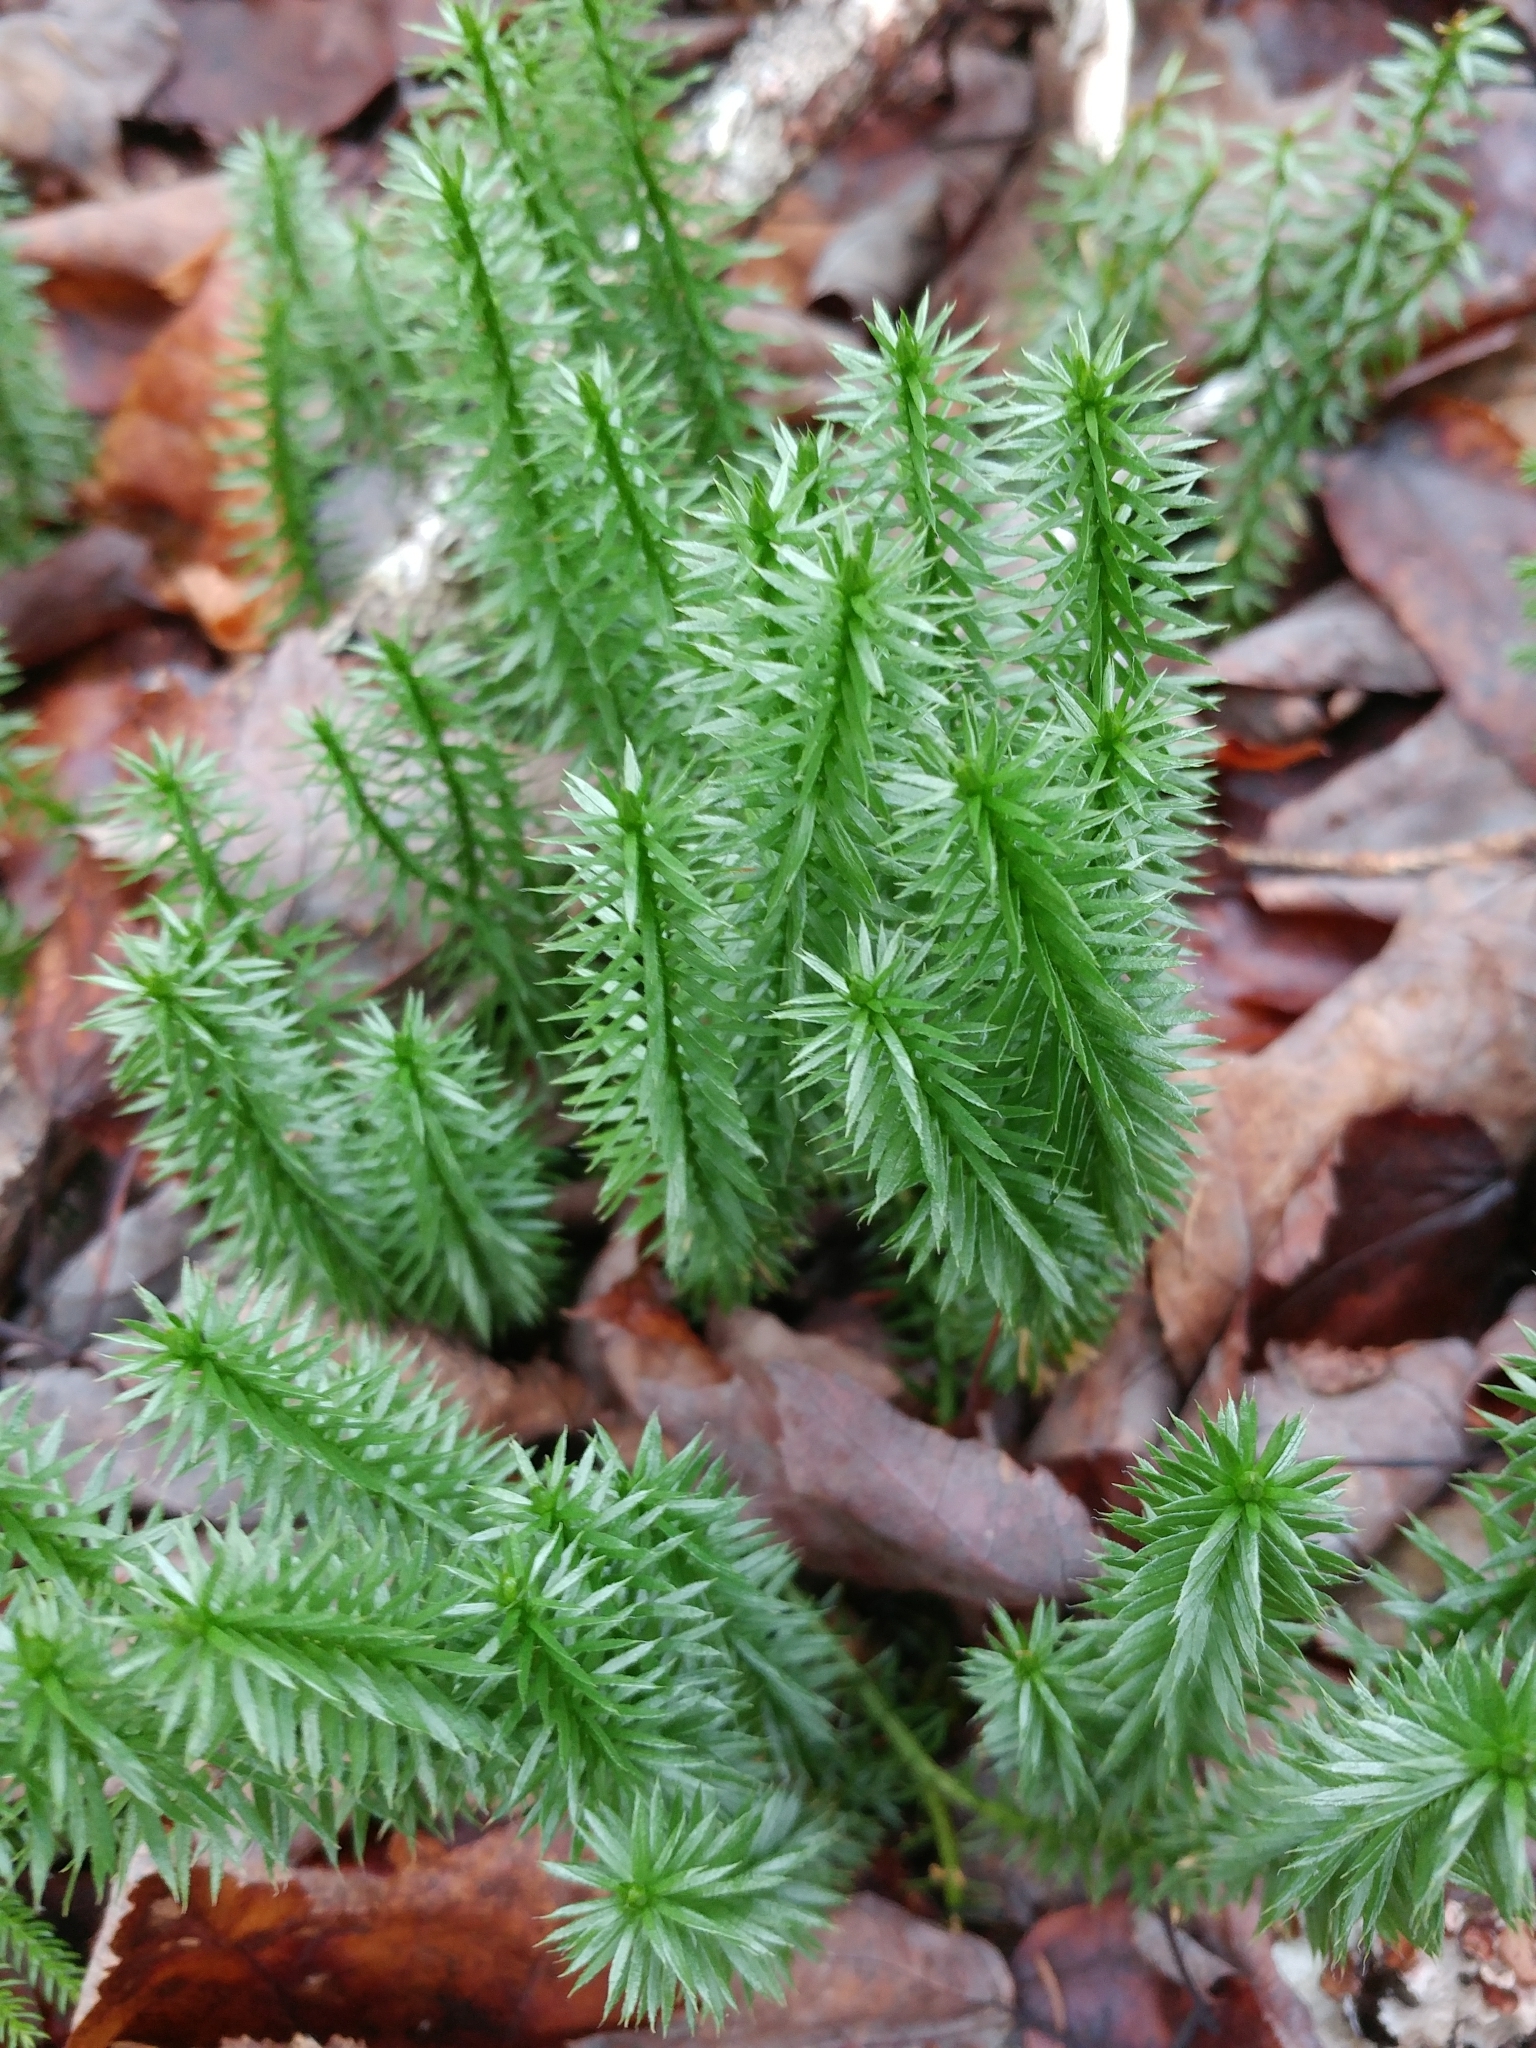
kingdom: Plantae
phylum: Tracheophyta
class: Lycopodiopsida
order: Lycopodiales
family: Lycopodiaceae
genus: Spinulum
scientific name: Spinulum annotinum
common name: Interrupted club-moss
